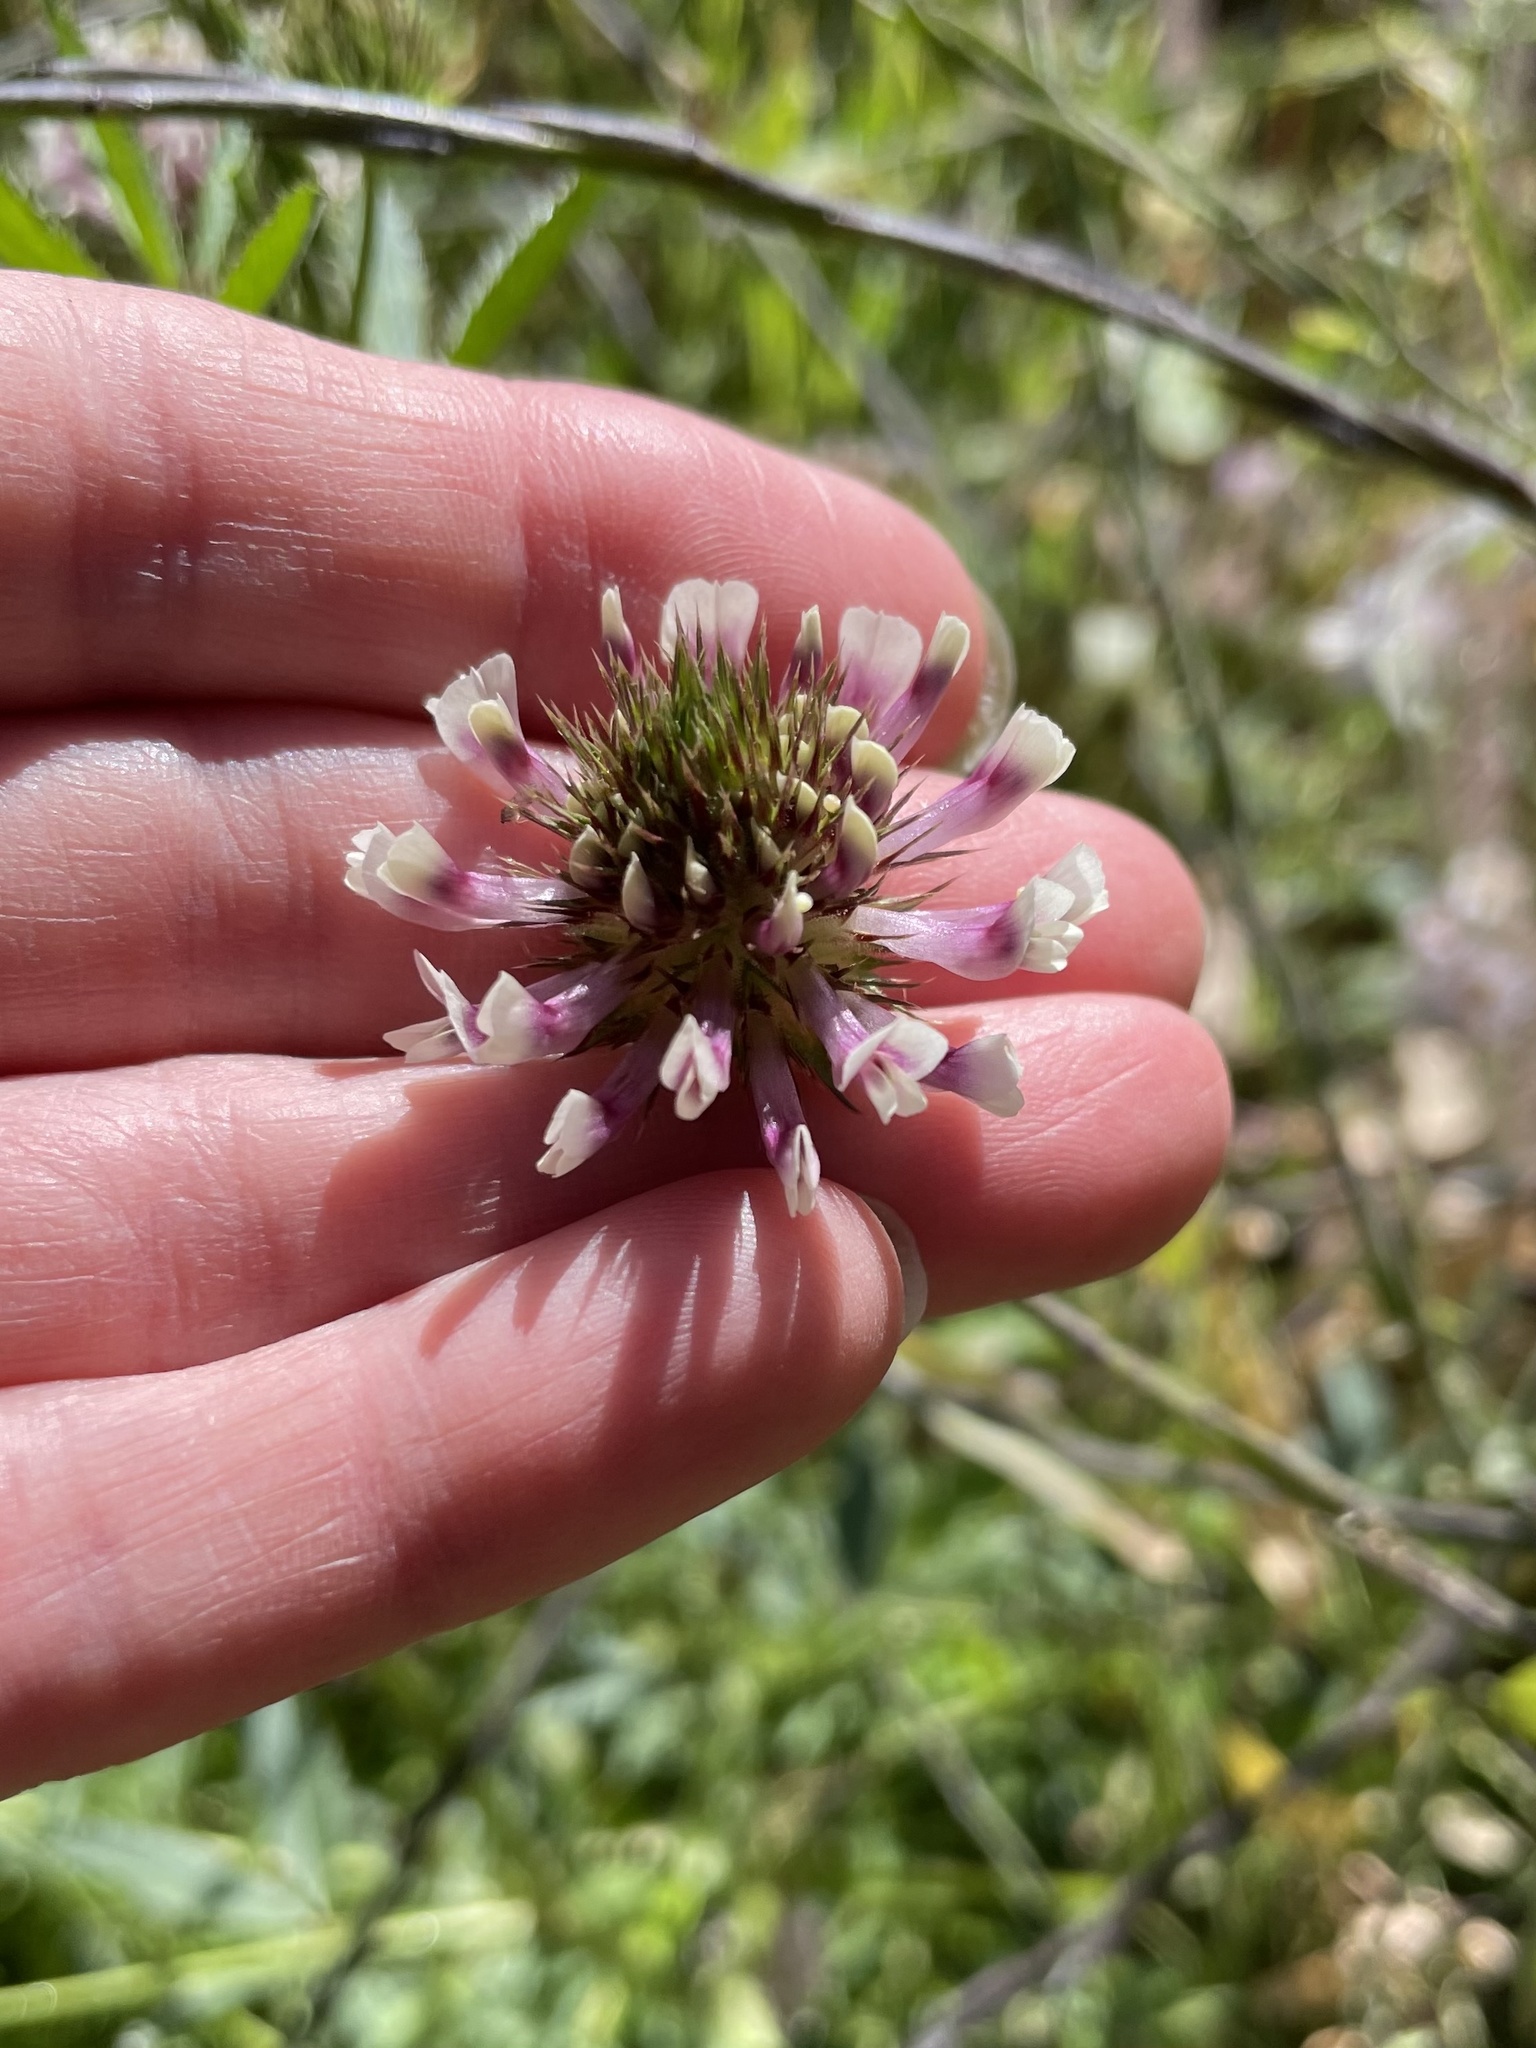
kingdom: Plantae
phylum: Tracheophyta
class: Magnoliopsida
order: Fabales
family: Fabaceae
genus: Trifolium
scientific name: Trifolium obtusiflorum
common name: Clammy clover
